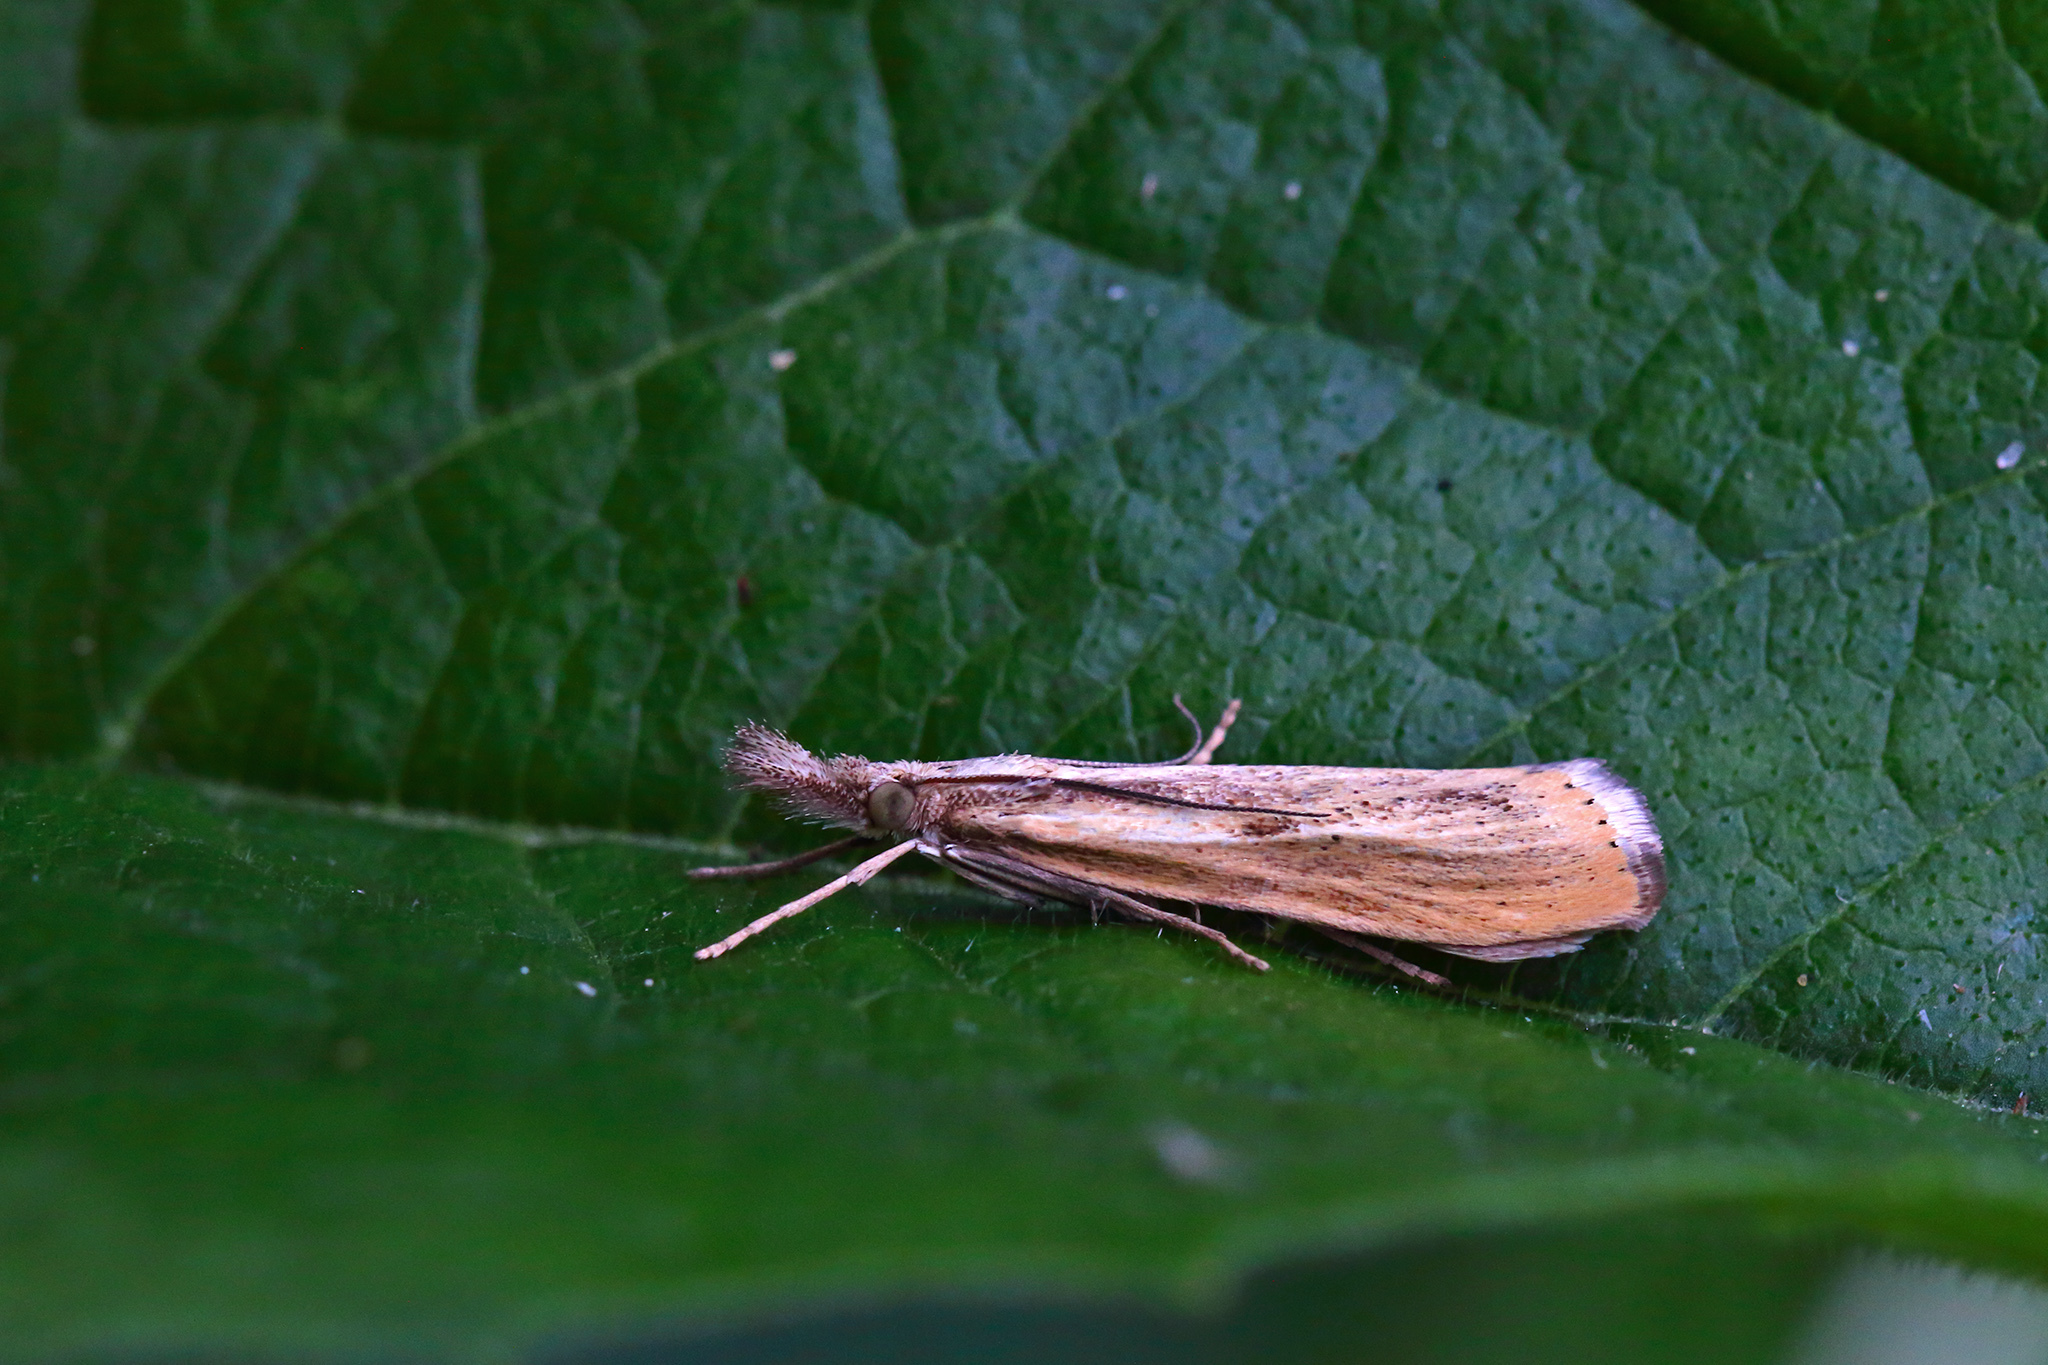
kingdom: Animalia
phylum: Arthropoda
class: Insecta
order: Lepidoptera
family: Crambidae
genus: Agriphila
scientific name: Agriphila inquinatella
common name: Barred grass-veneer
